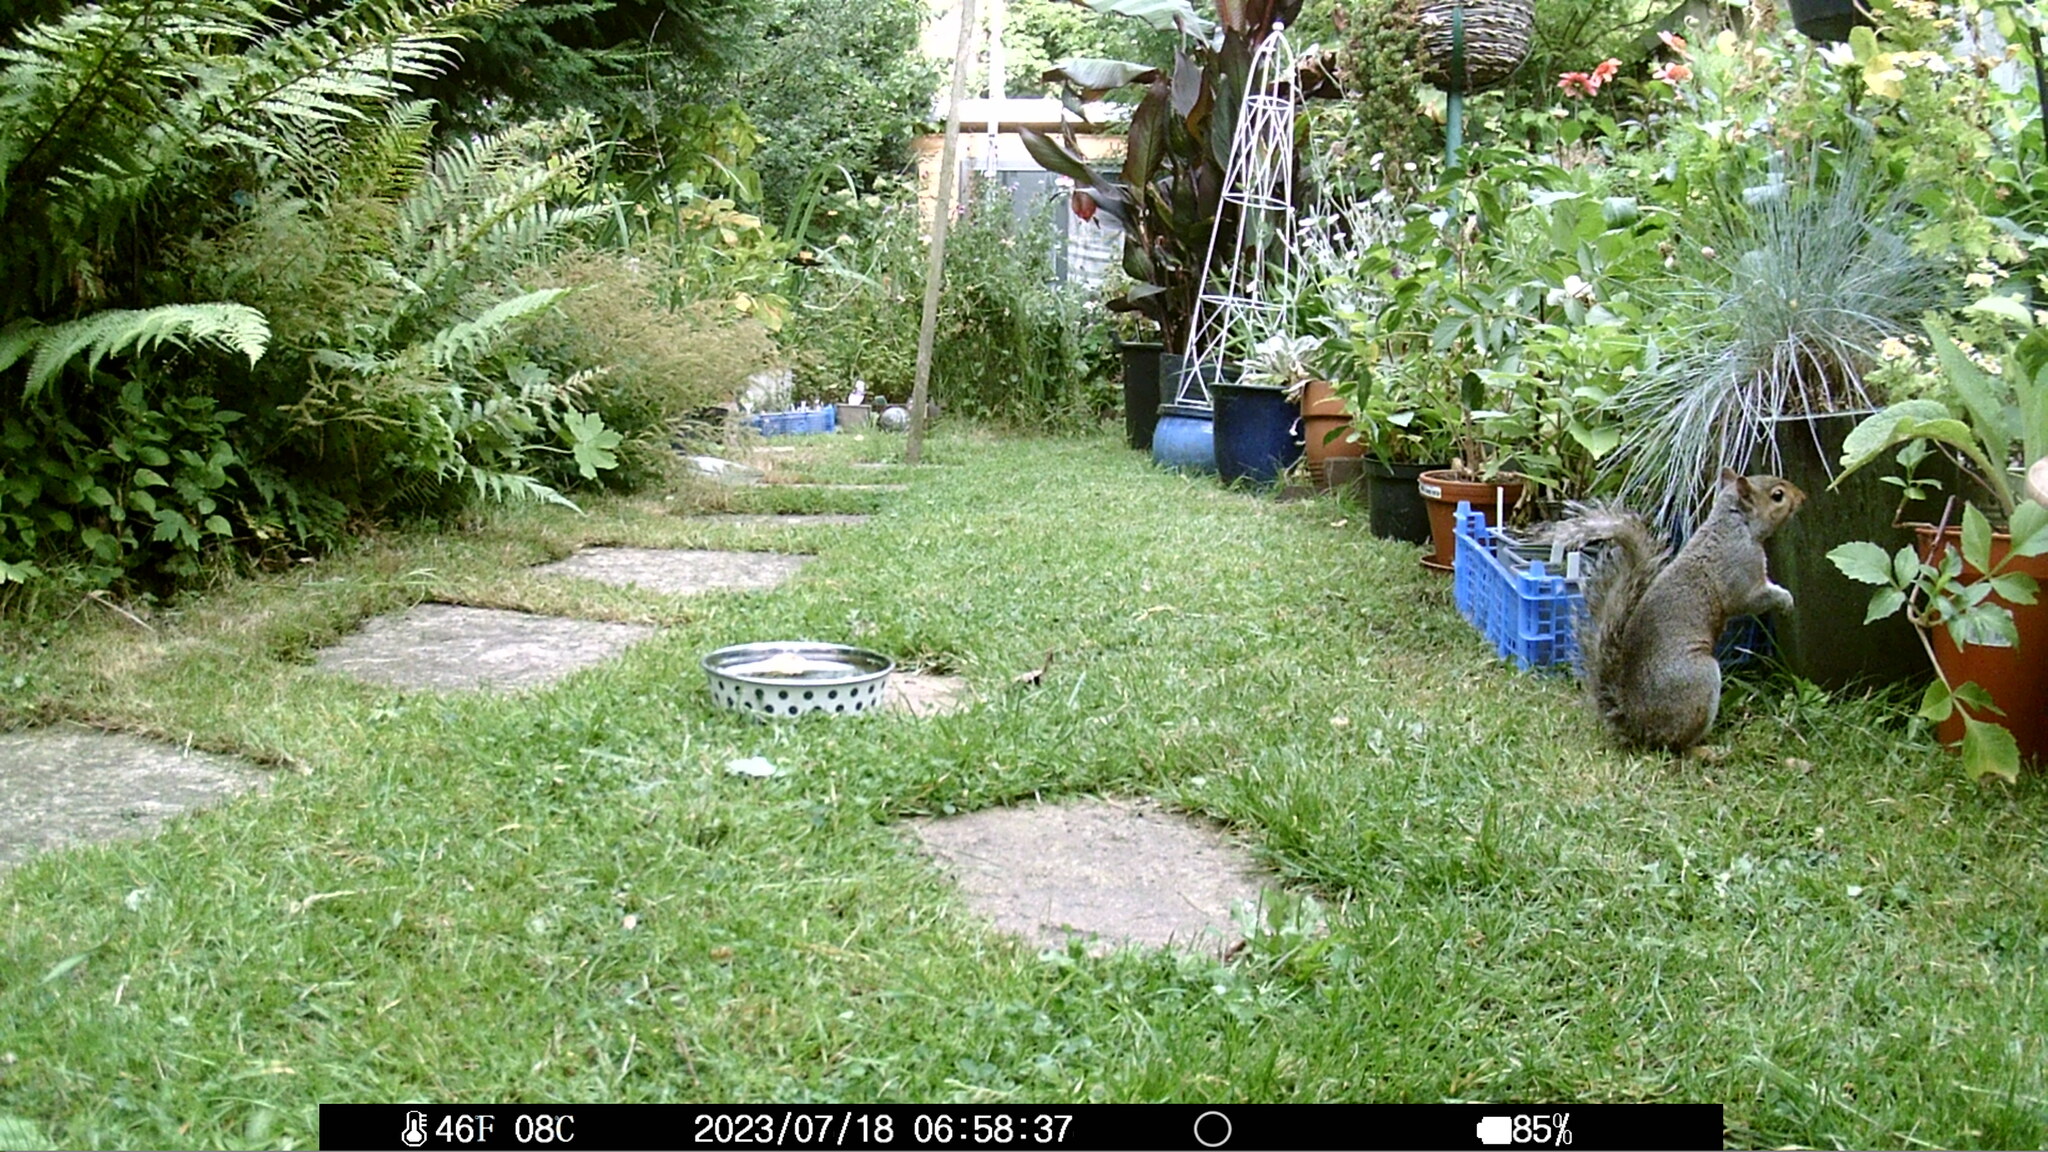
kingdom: Animalia
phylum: Chordata
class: Mammalia
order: Rodentia
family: Sciuridae
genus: Sciurus
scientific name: Sciurus carolinensis
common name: Eastern gray squirrel
